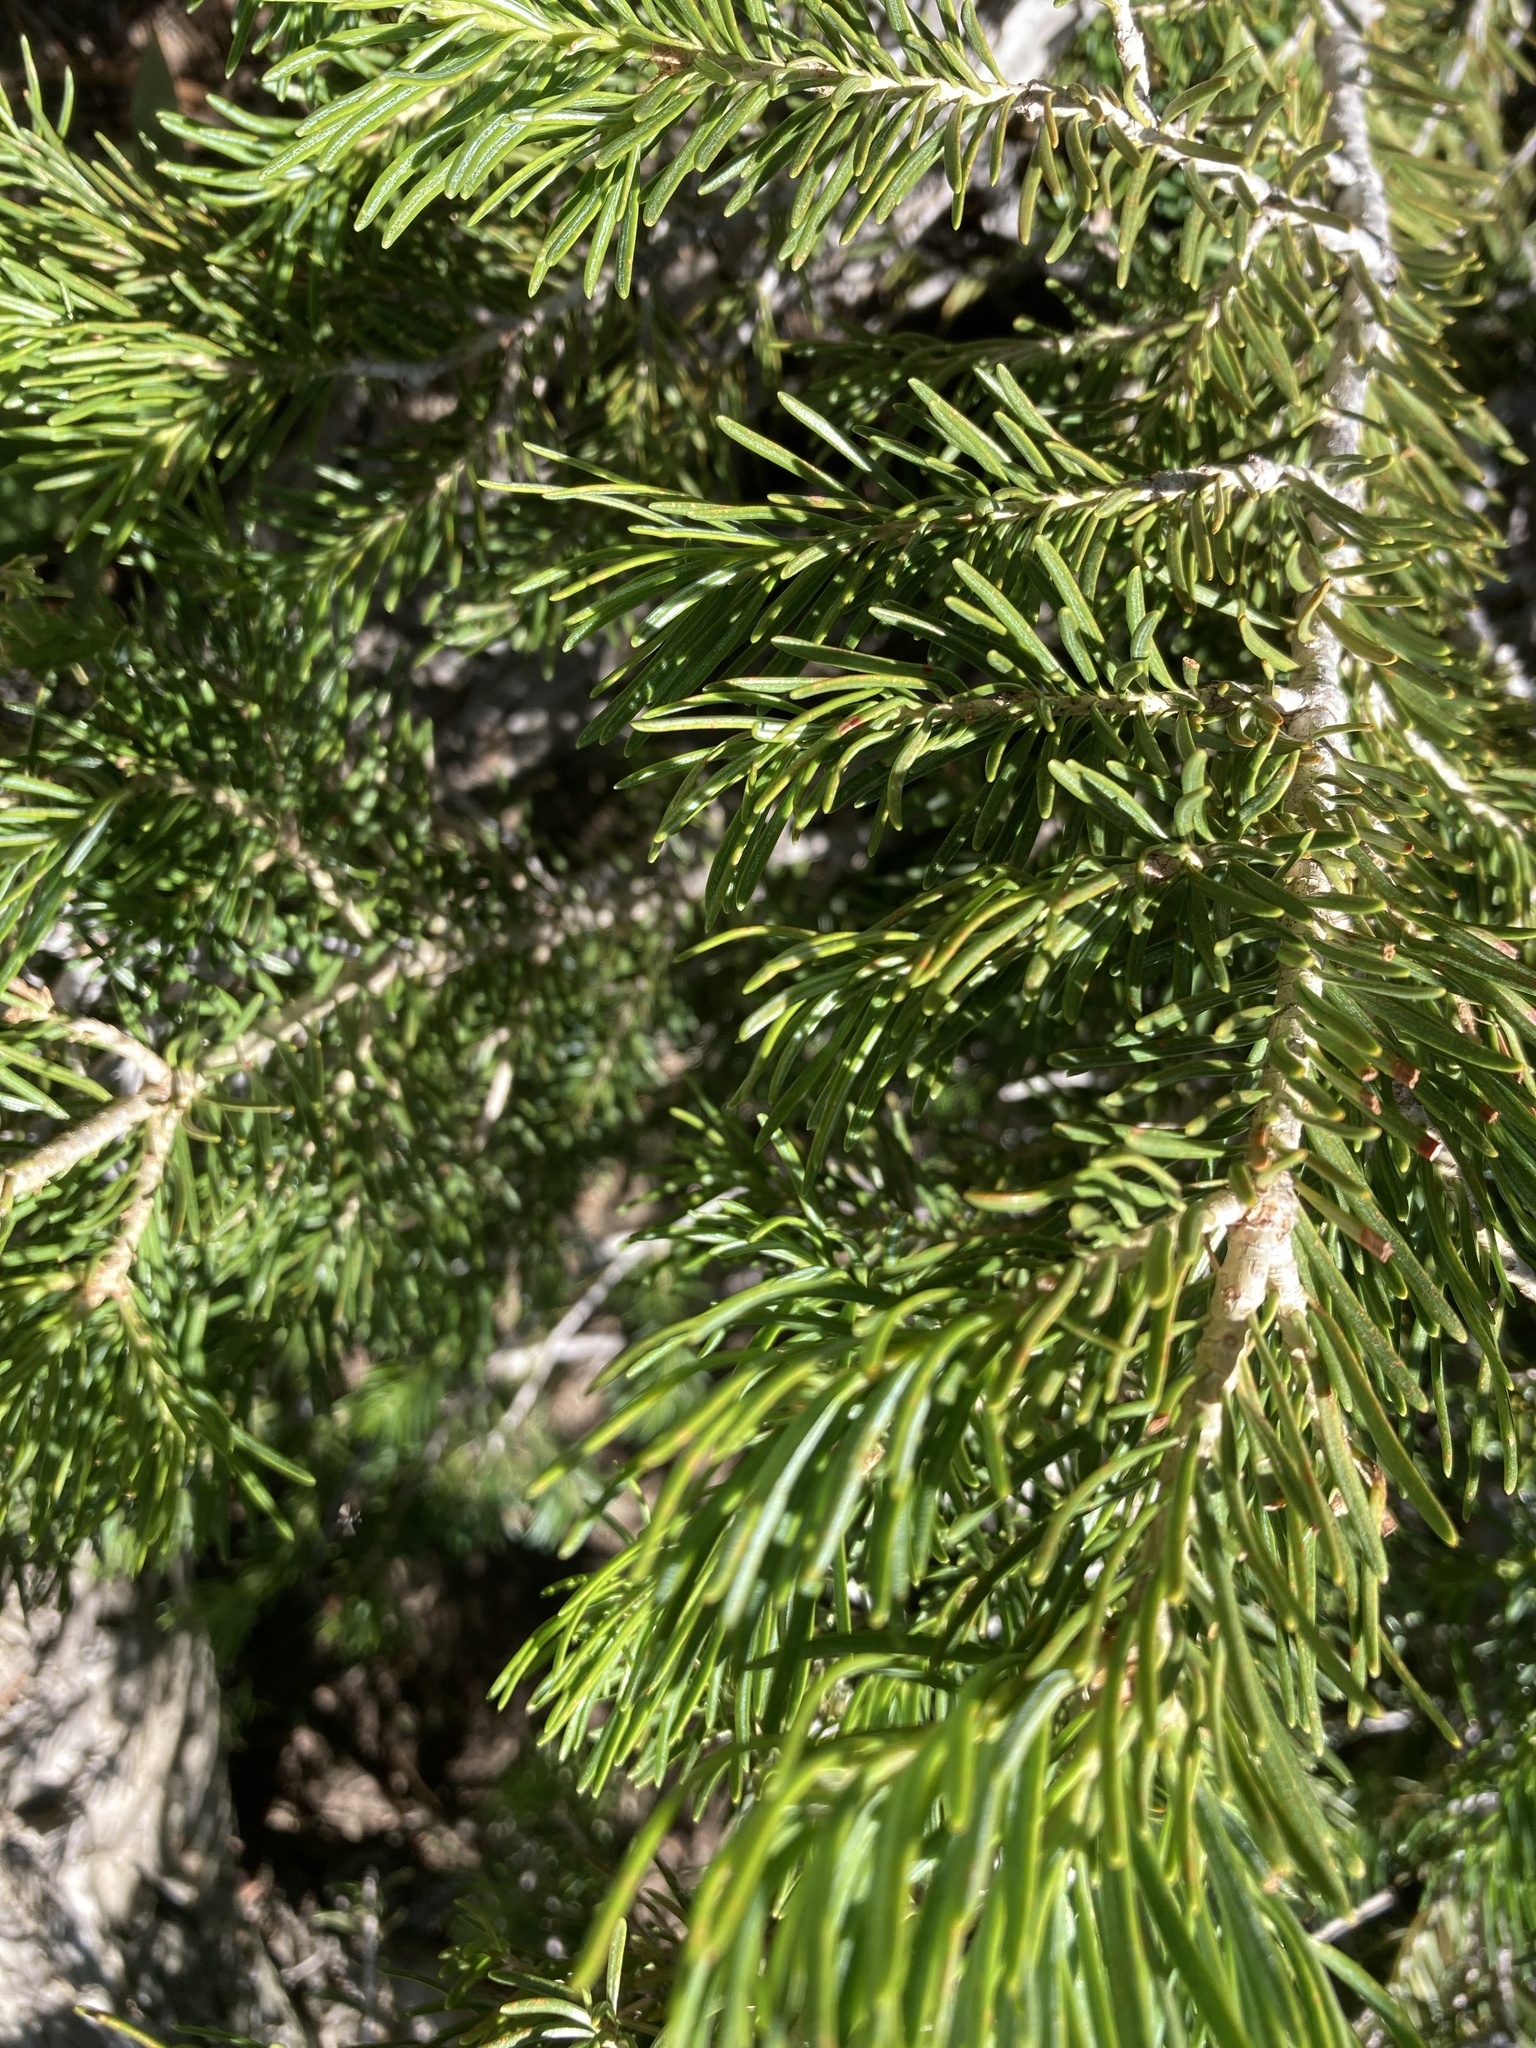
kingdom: Plantae
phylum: Tracheophyta
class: Pinopsida
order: Pinales
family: Pinaceae
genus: Abies
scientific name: Abies lasiocarpa
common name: Subalpine fir
